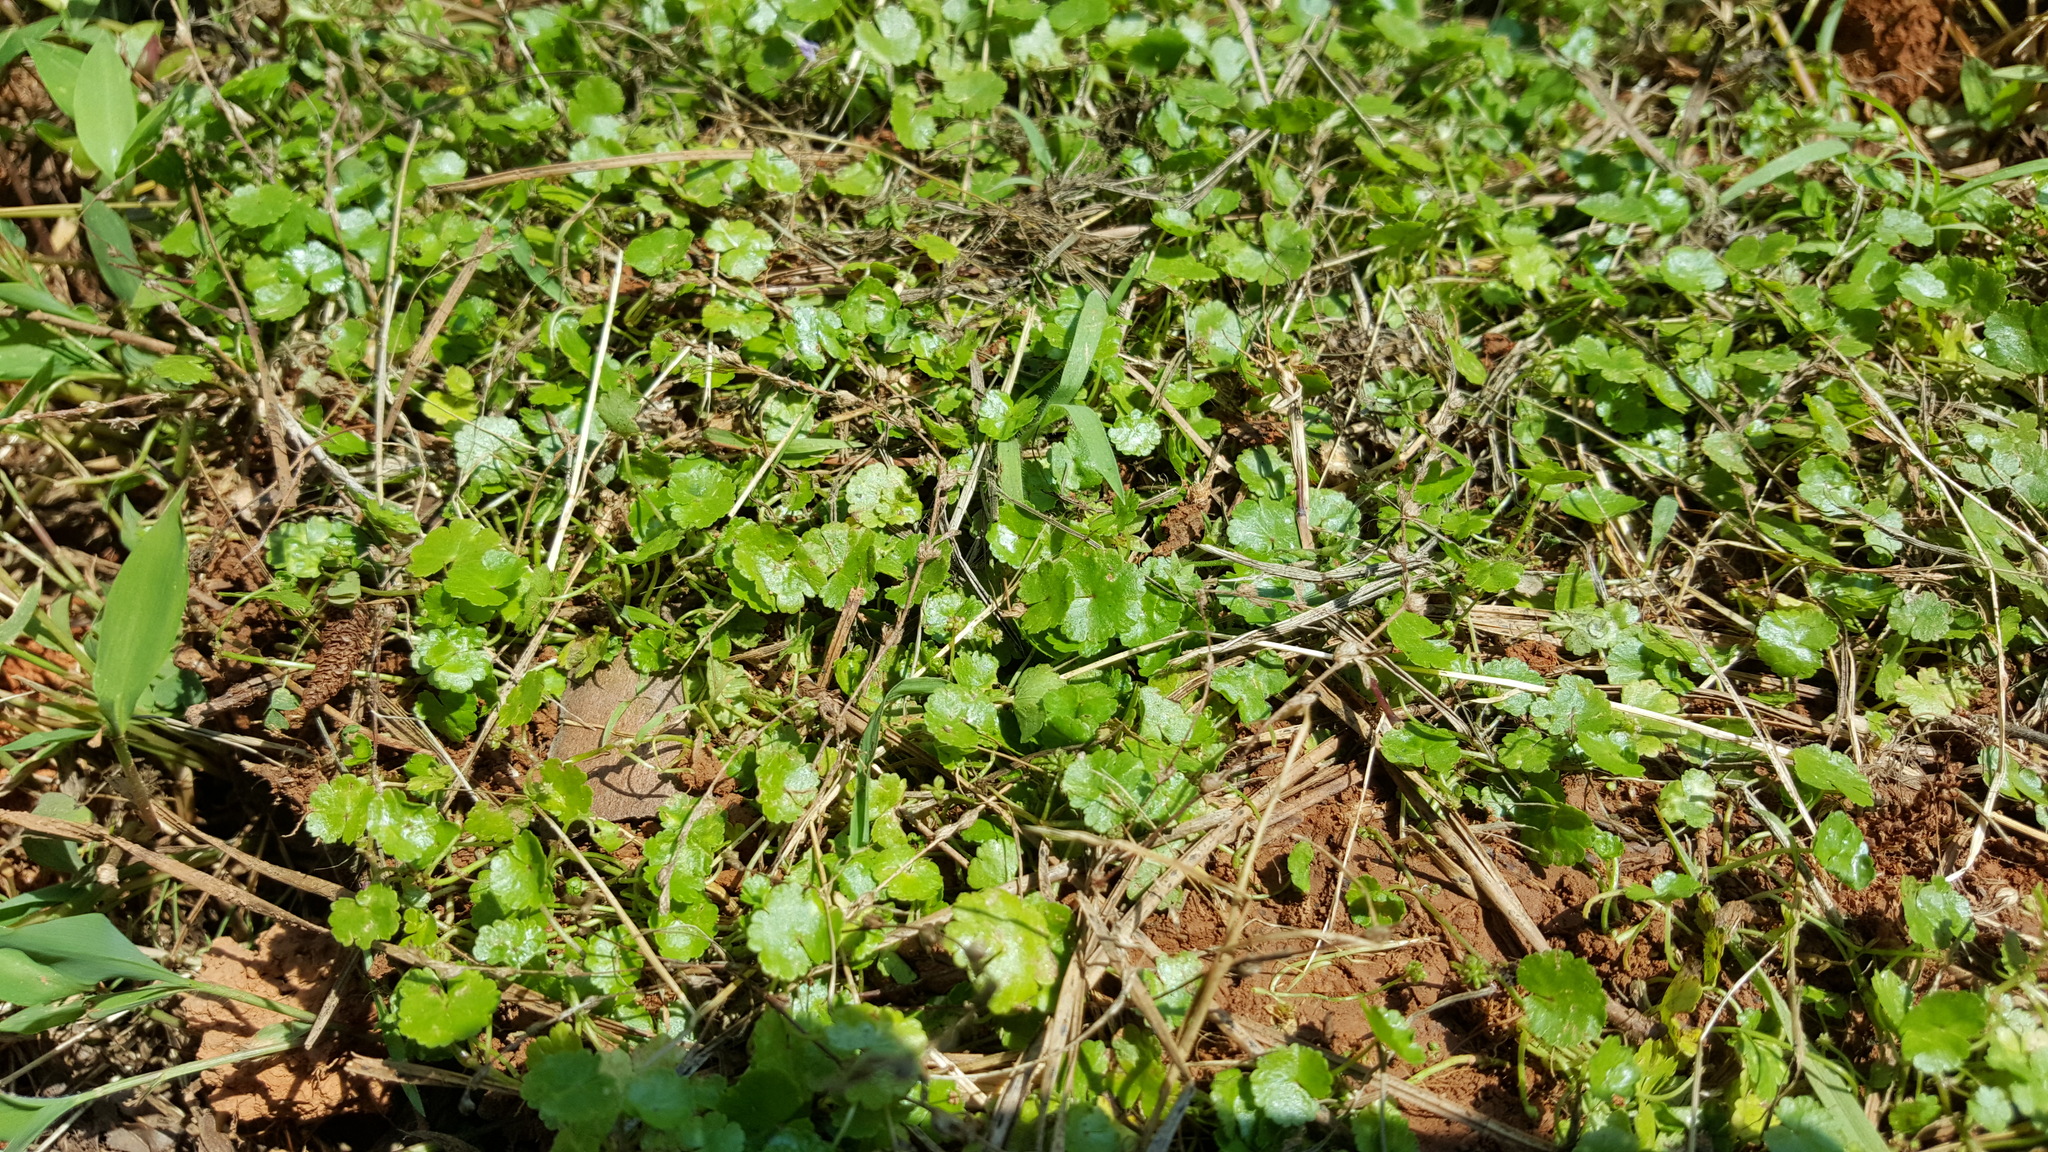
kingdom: Plantae
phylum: Tracheophyta
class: Magnoliopsida
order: Lamiales
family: Lamiaceae
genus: Glechoma
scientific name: Glechoma hederacea
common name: Ground ivy
